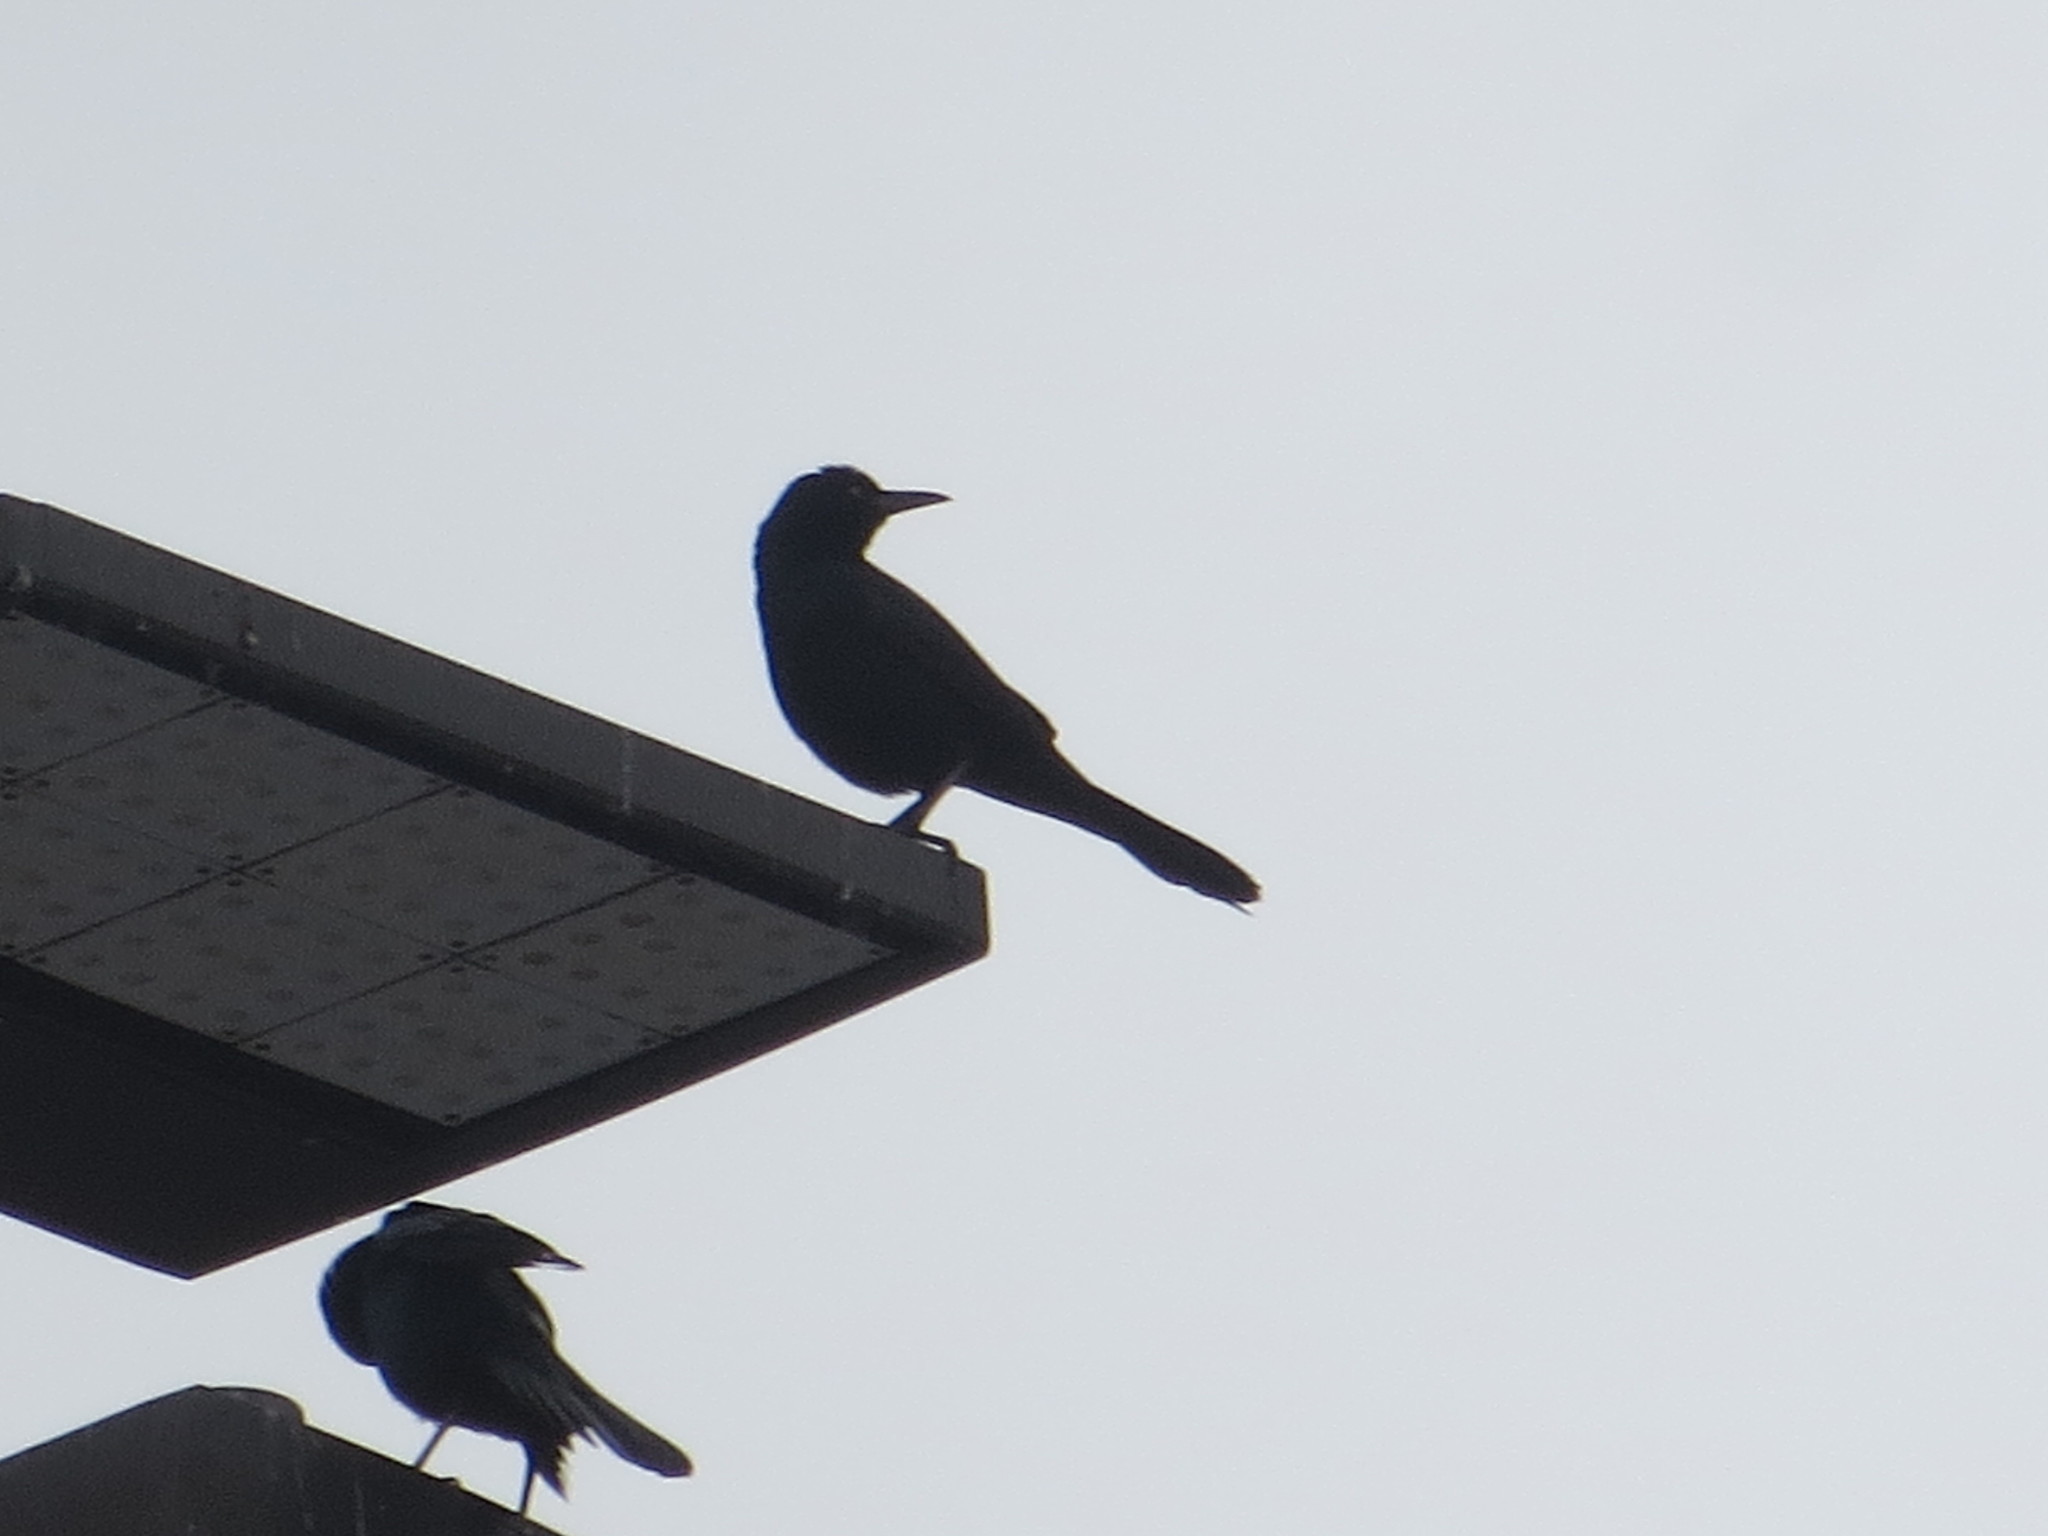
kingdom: Animalia
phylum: Chordata
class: Aves
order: Passeriformes
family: Icteridae
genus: Quiscalus
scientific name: Quiscalus major
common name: Boat-tailed grackle
